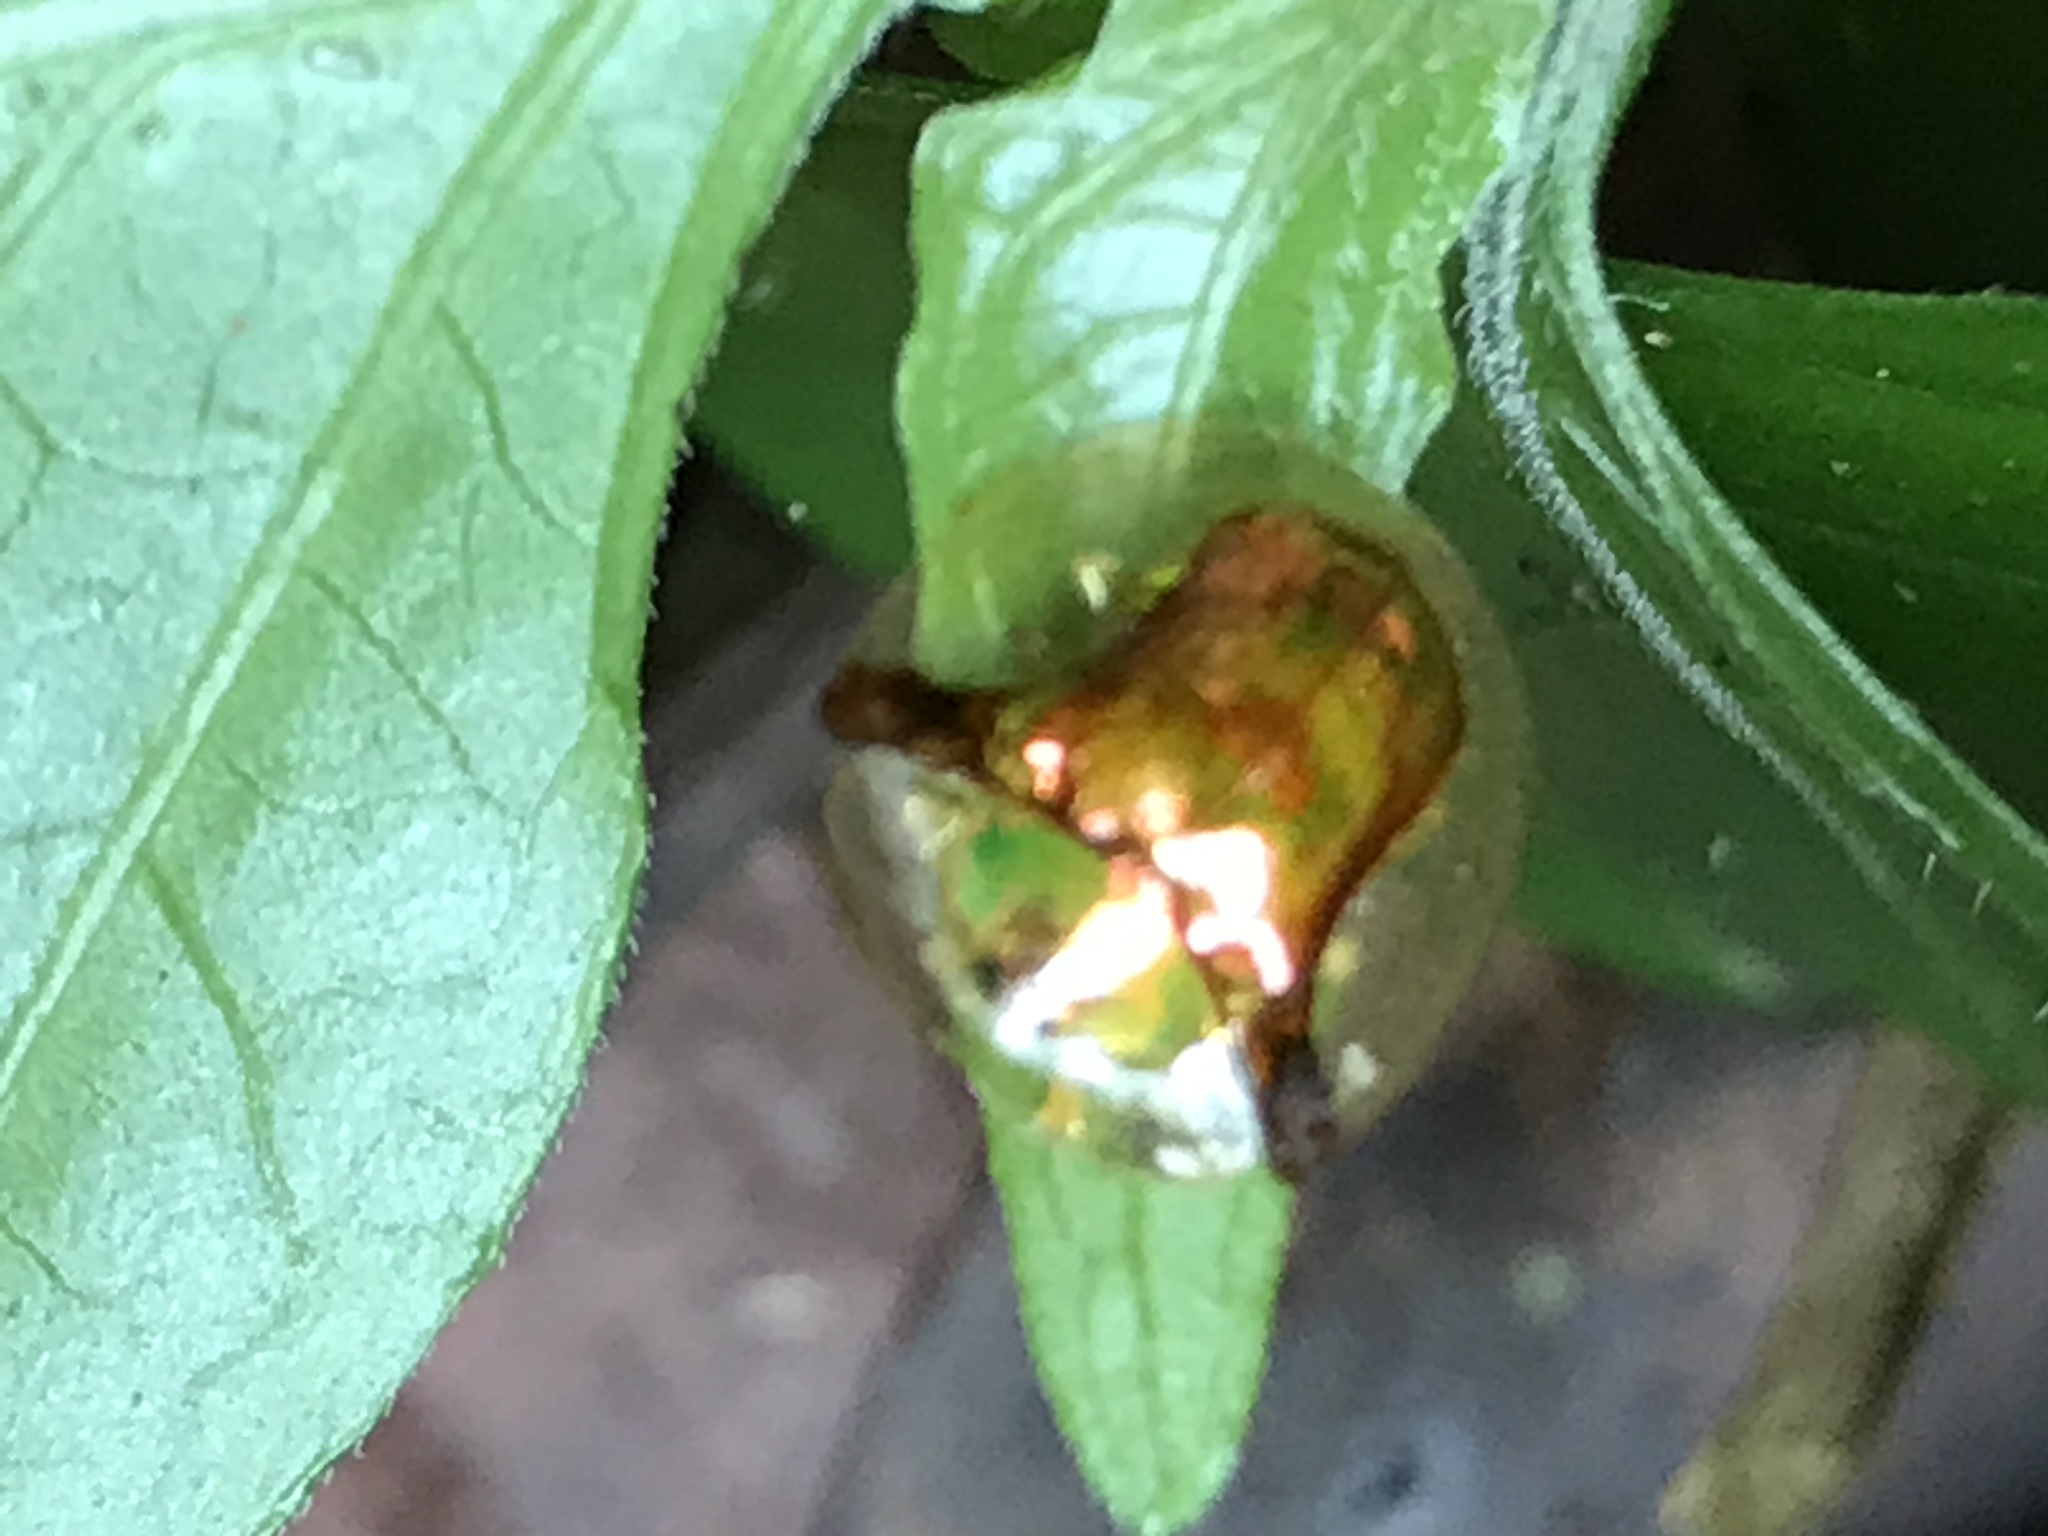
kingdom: Animalia
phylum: Arthropoda
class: Insecta
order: Coleoptera
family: Chrysomelidae
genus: Aspidimorpha
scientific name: Aspidimorpha furcata
